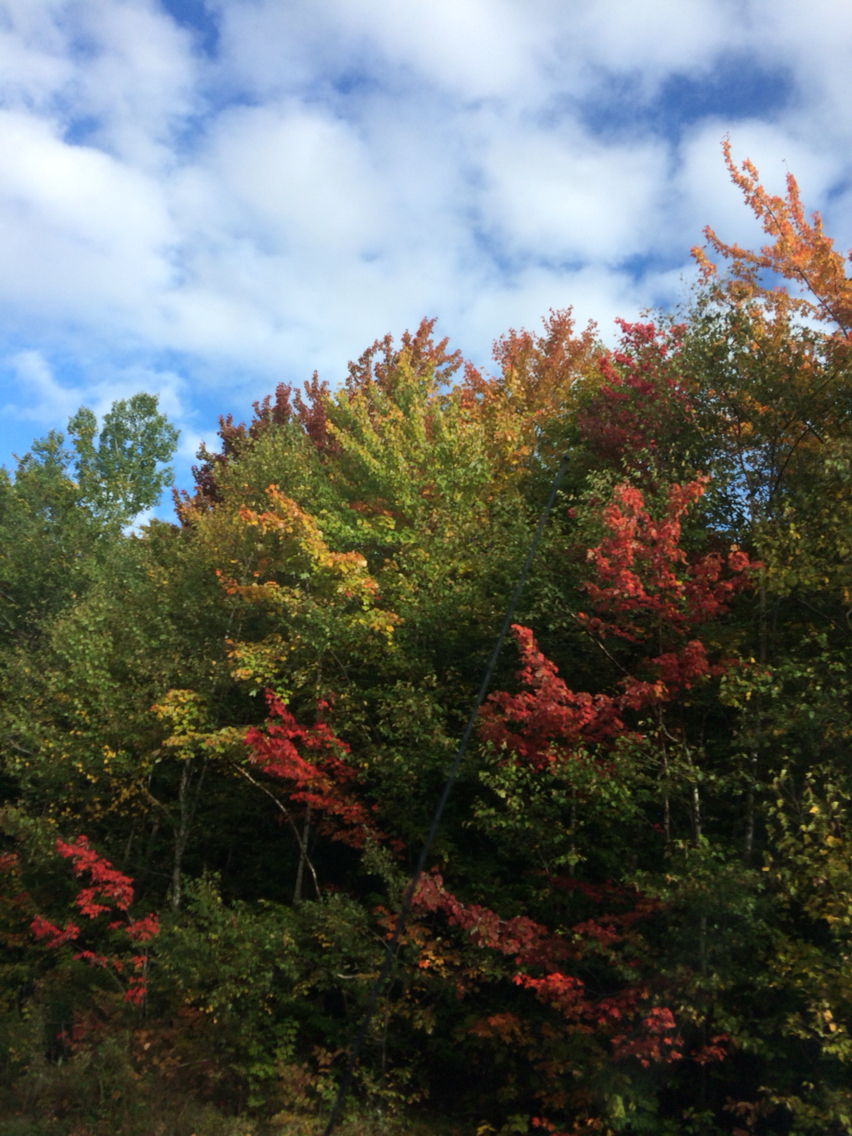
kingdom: Plantae
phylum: Tracheophyta
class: Magnoliopsida
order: Sapindales
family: Sapindaceae
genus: Acer
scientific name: Acer rubrum
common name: Red maple
